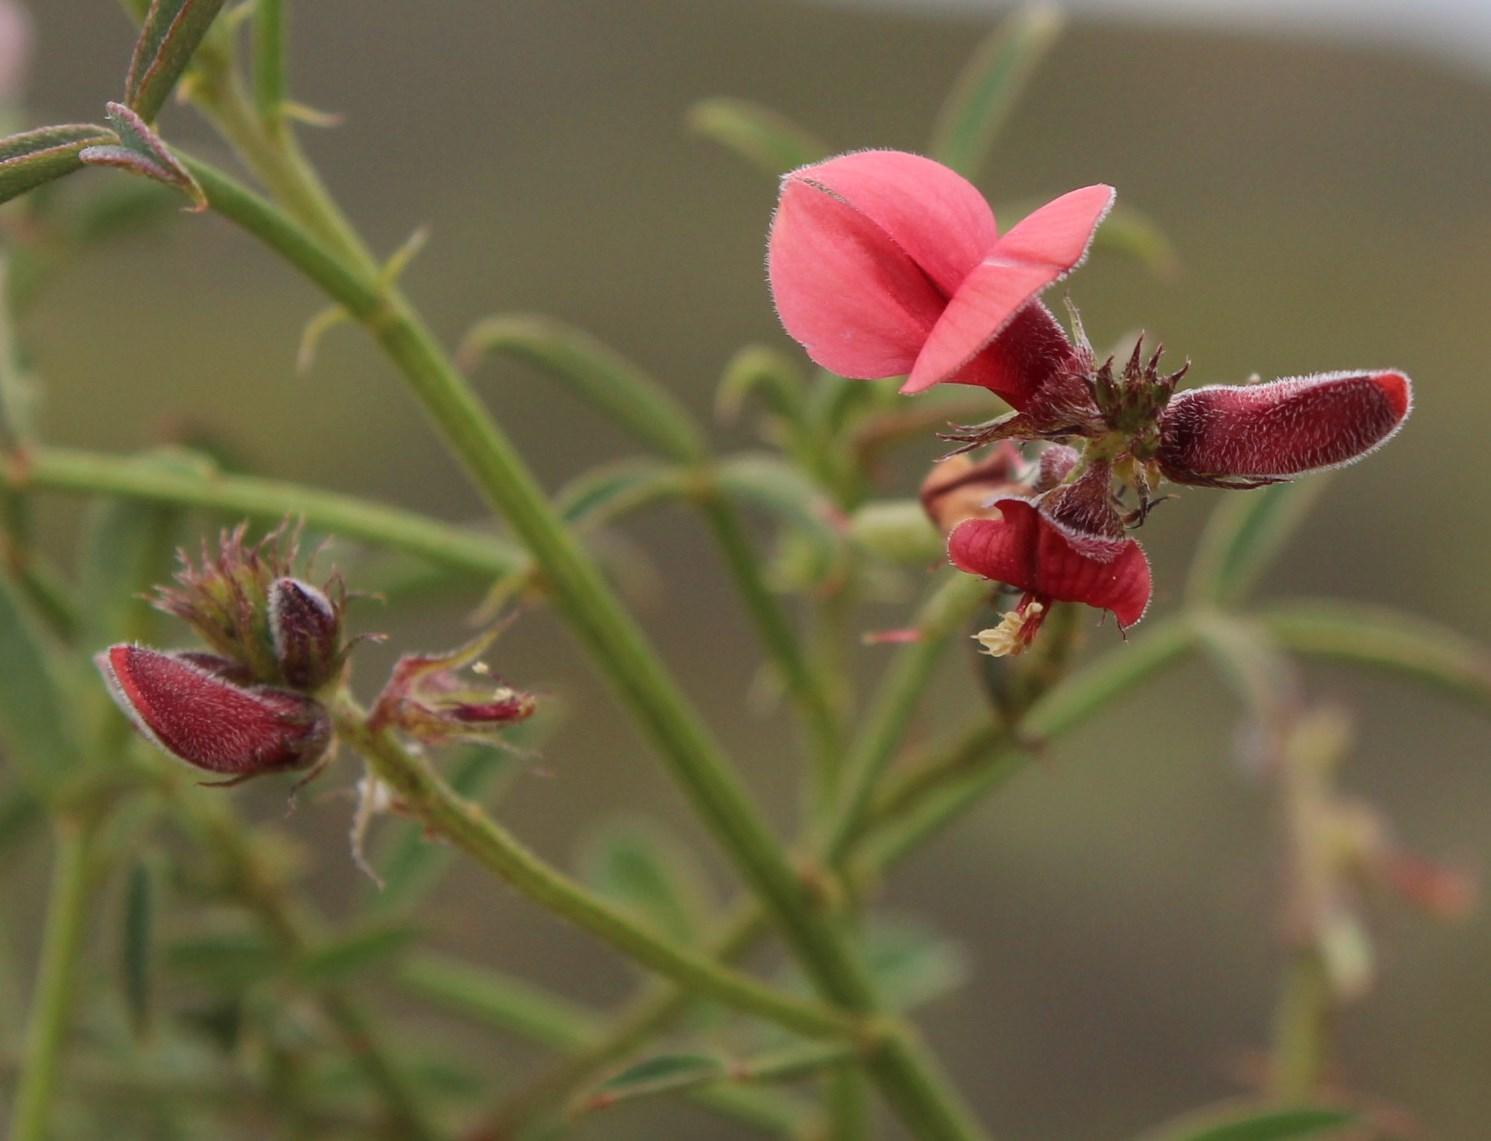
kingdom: Plantae
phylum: Tracheophyta
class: Magnoliopsida
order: Fabales
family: Fabaceae
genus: Indigofera
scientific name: Indigofera heterophylla
